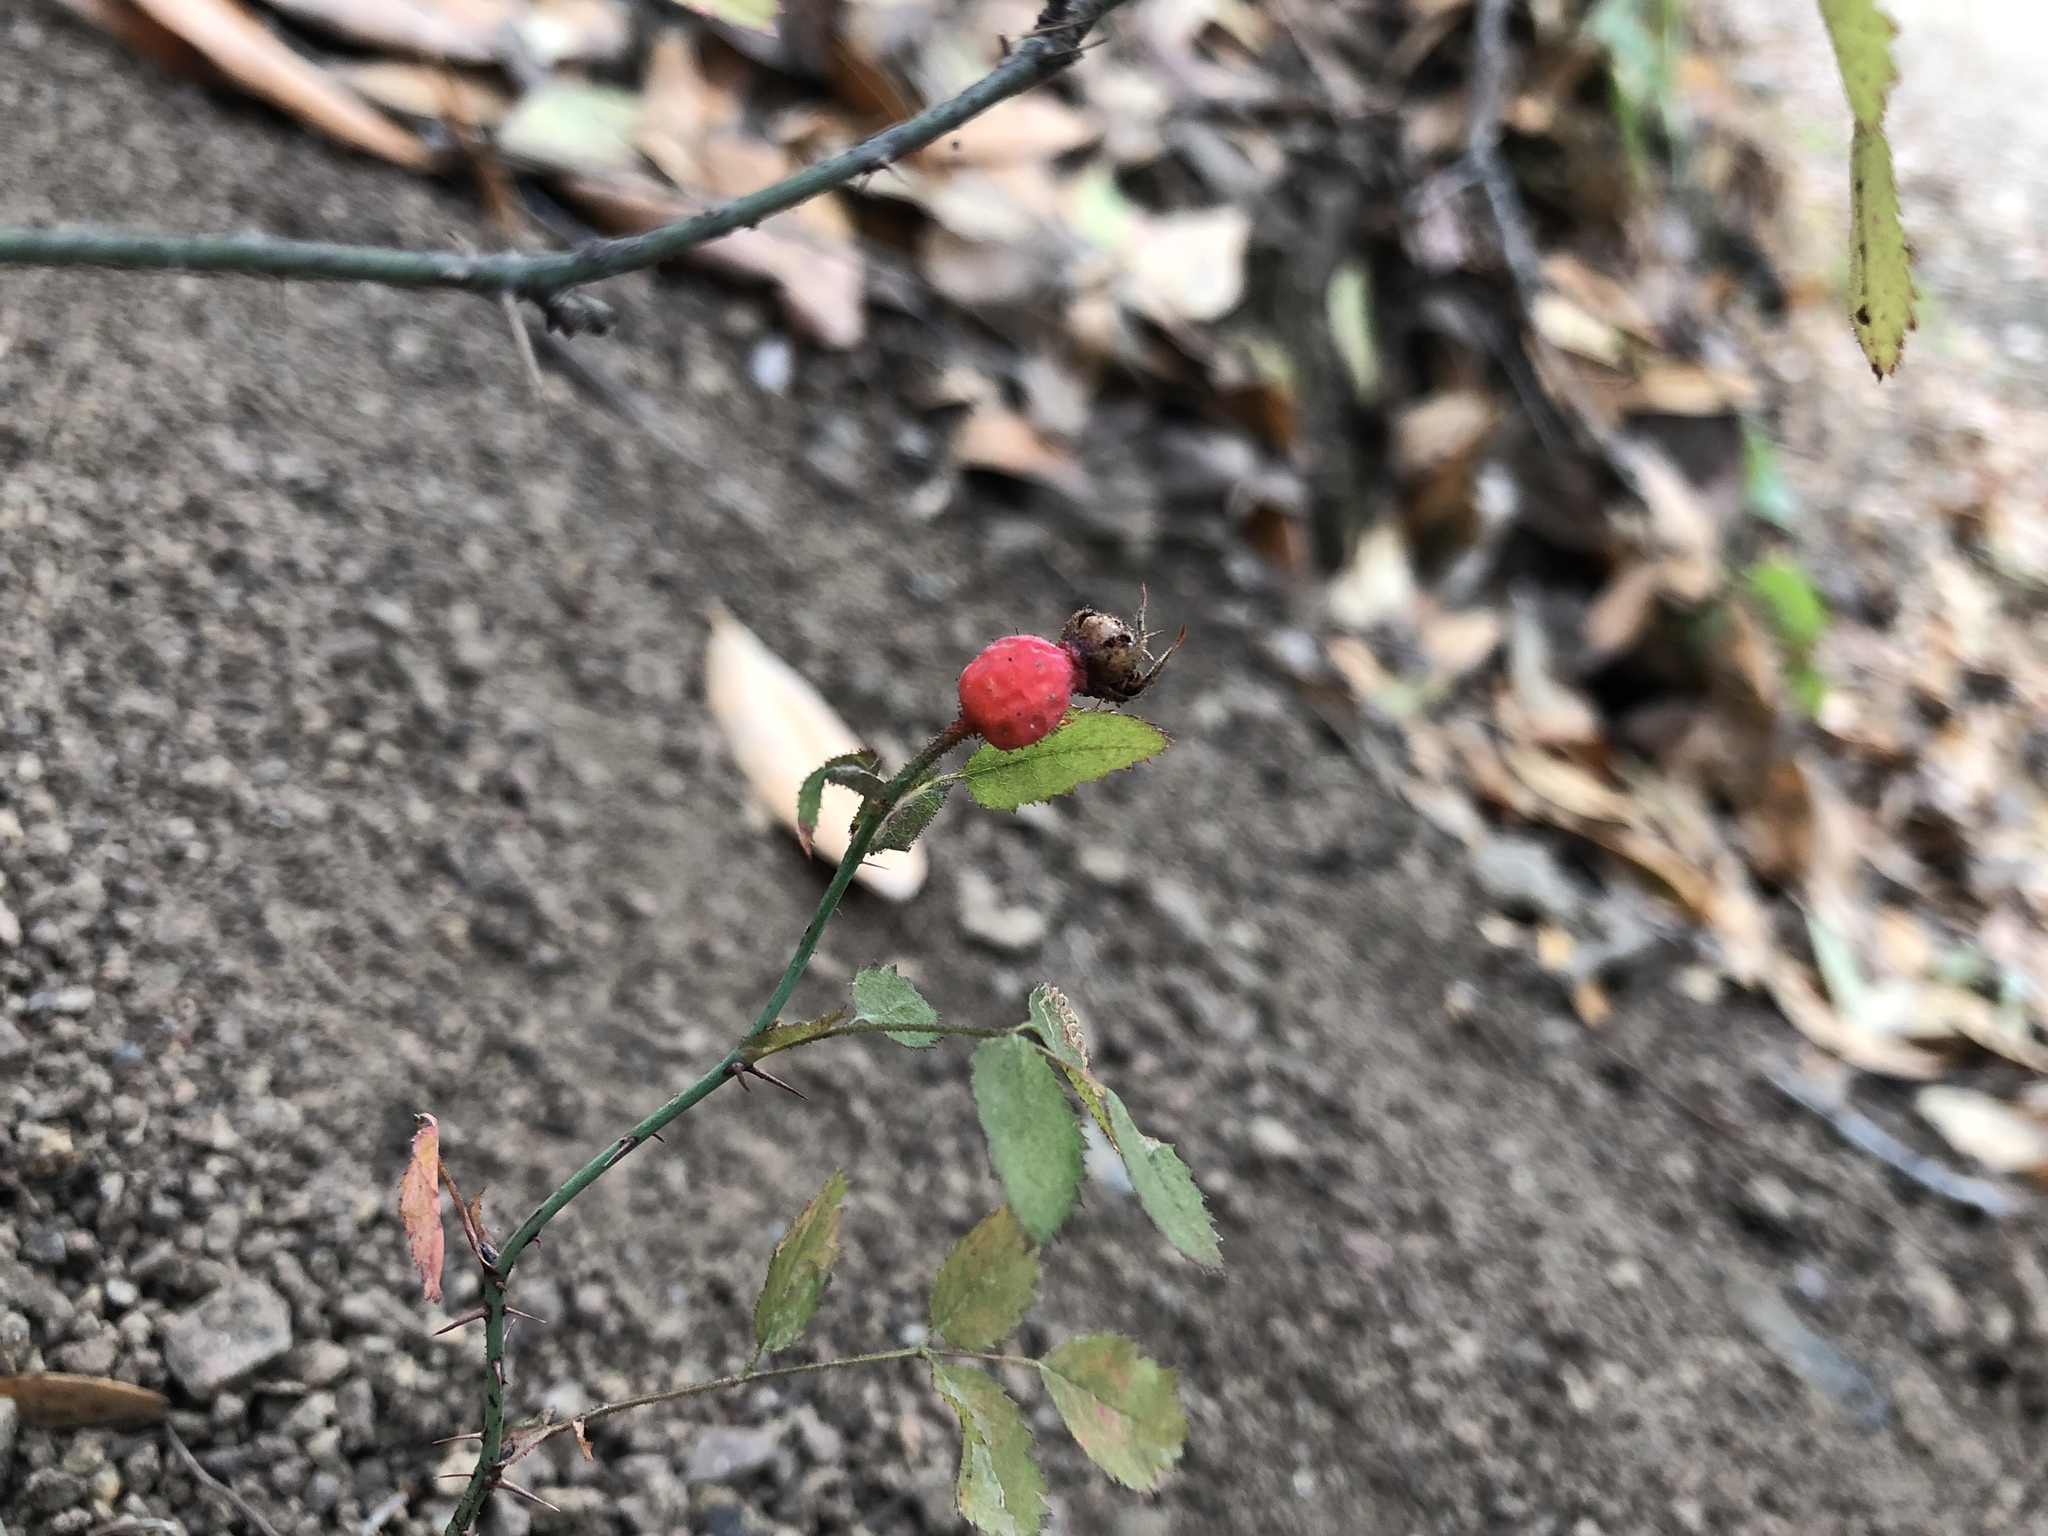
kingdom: Plantae
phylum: Tracheophyta
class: Magnoliopsida
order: Rosales
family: Rosaceae
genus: Rosa
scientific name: Rosa spithamea
